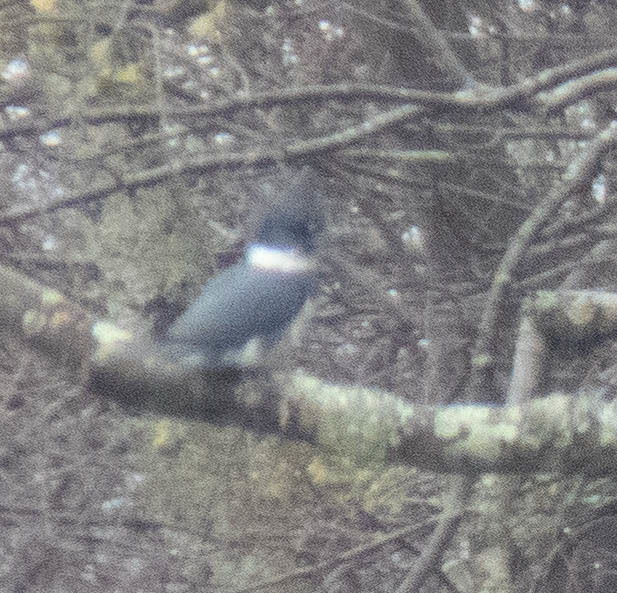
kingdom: Animalia
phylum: Chordata
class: Aves
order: Coraciiformes
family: Alcedinidae
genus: Megaceryle
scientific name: Megaceryle alcyon
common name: Belted kingfisher
